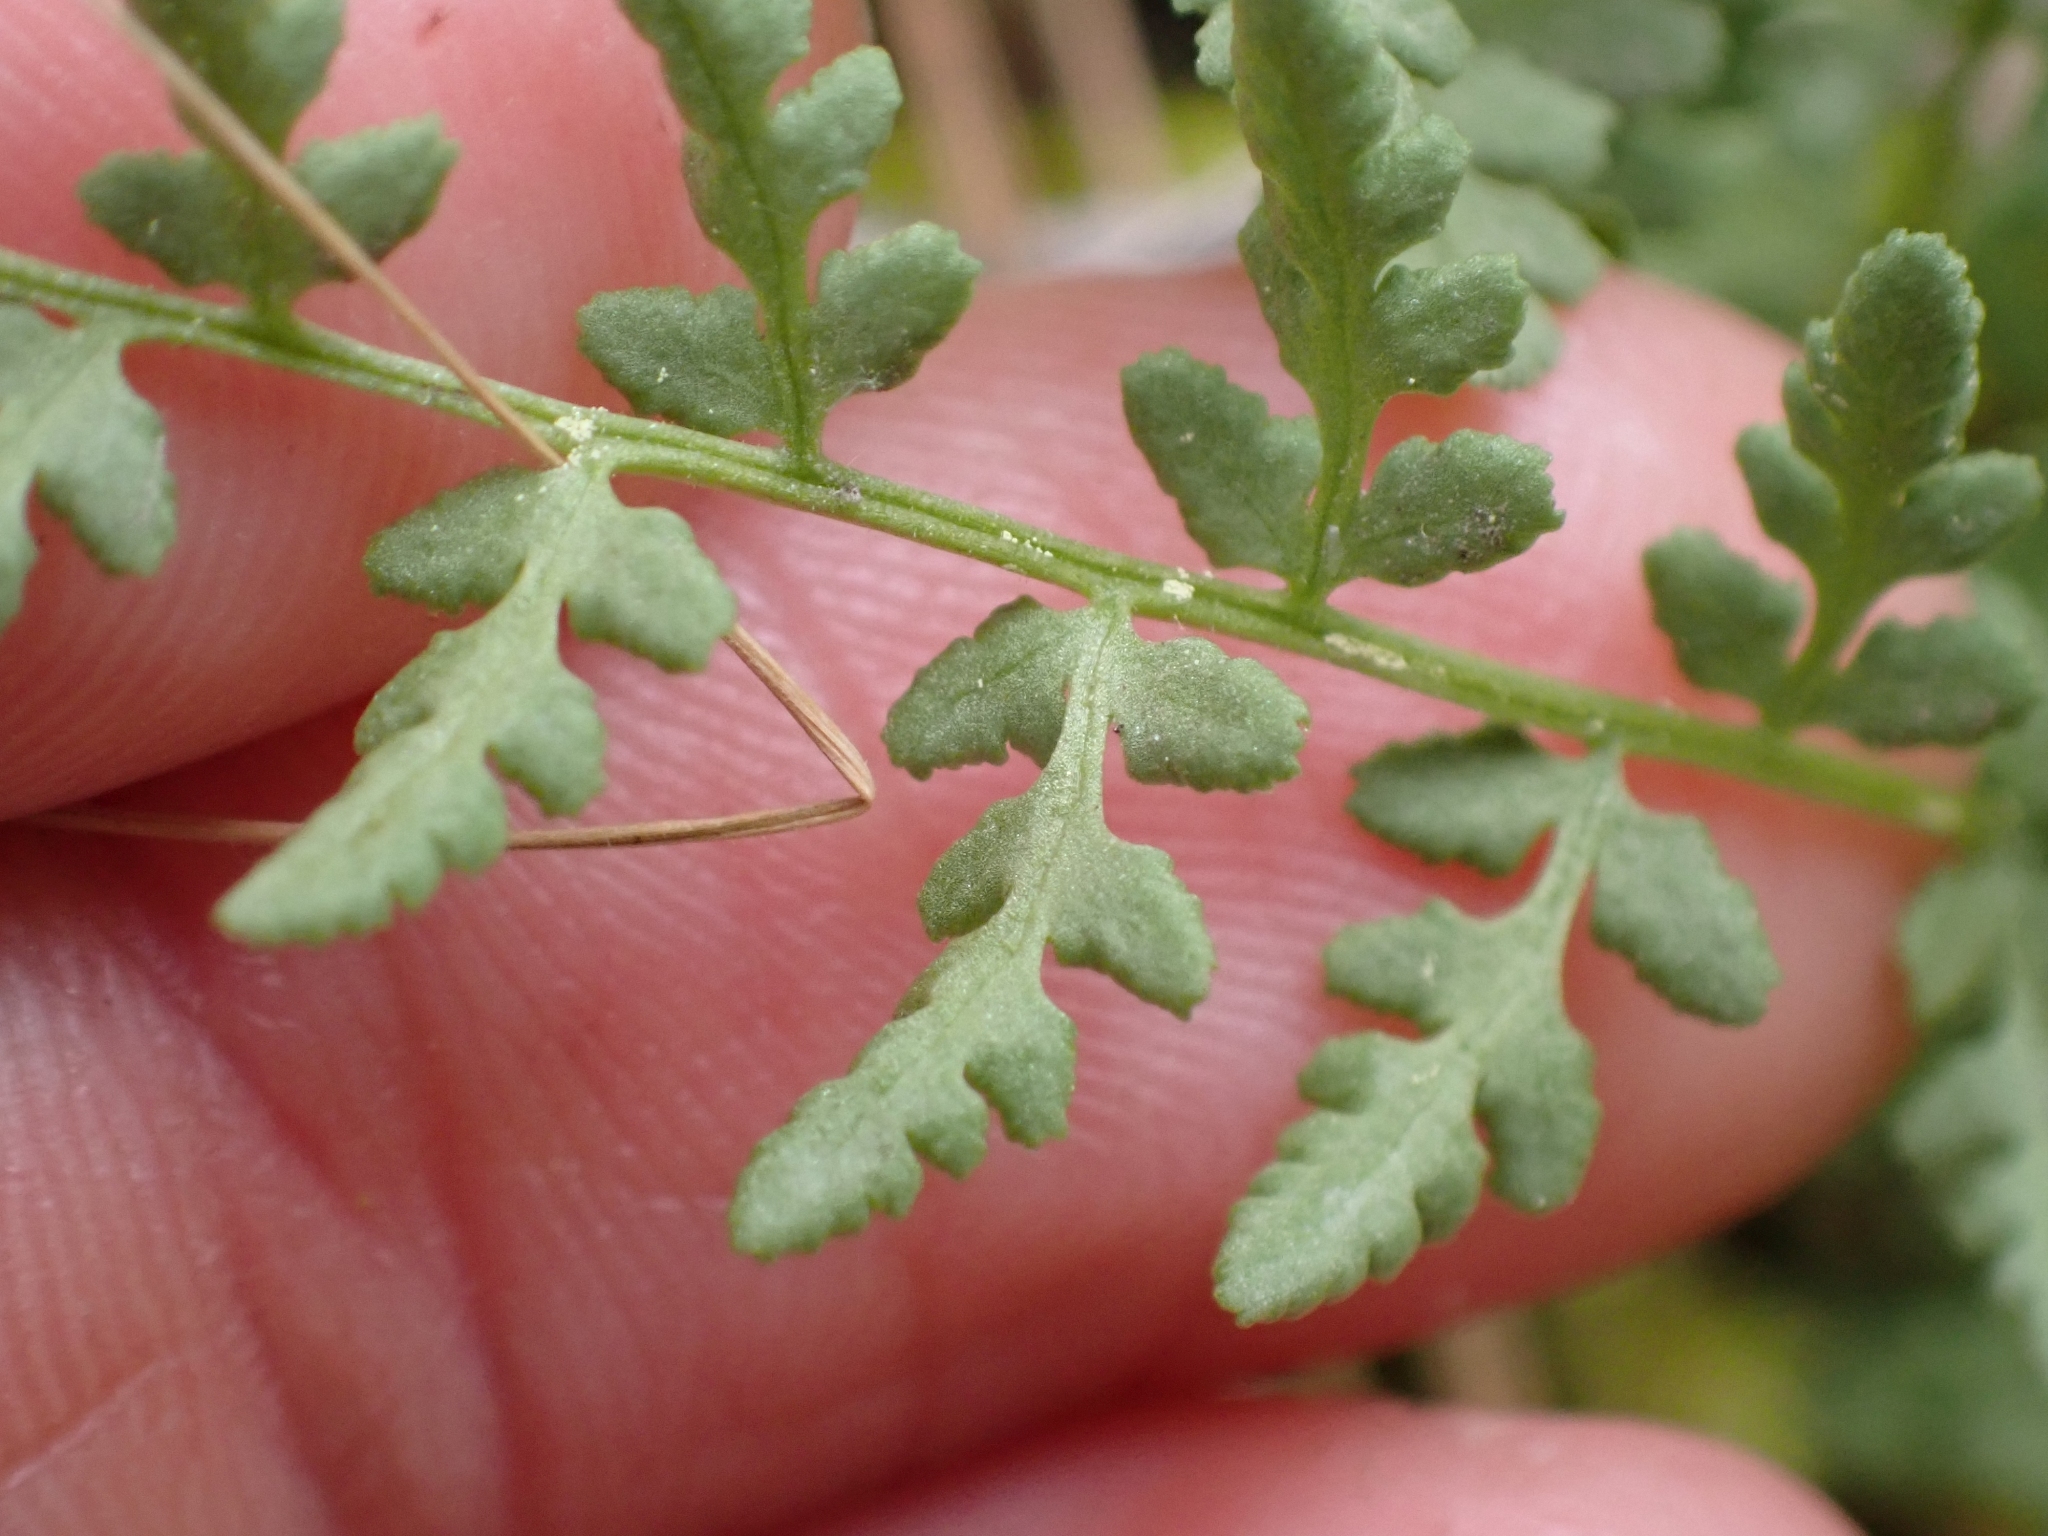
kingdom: Plantae
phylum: Tracheophyta
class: Polypodiopsida
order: Polypodiales
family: Woodsiaceae
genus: Physematium
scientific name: Physematium oreganum
